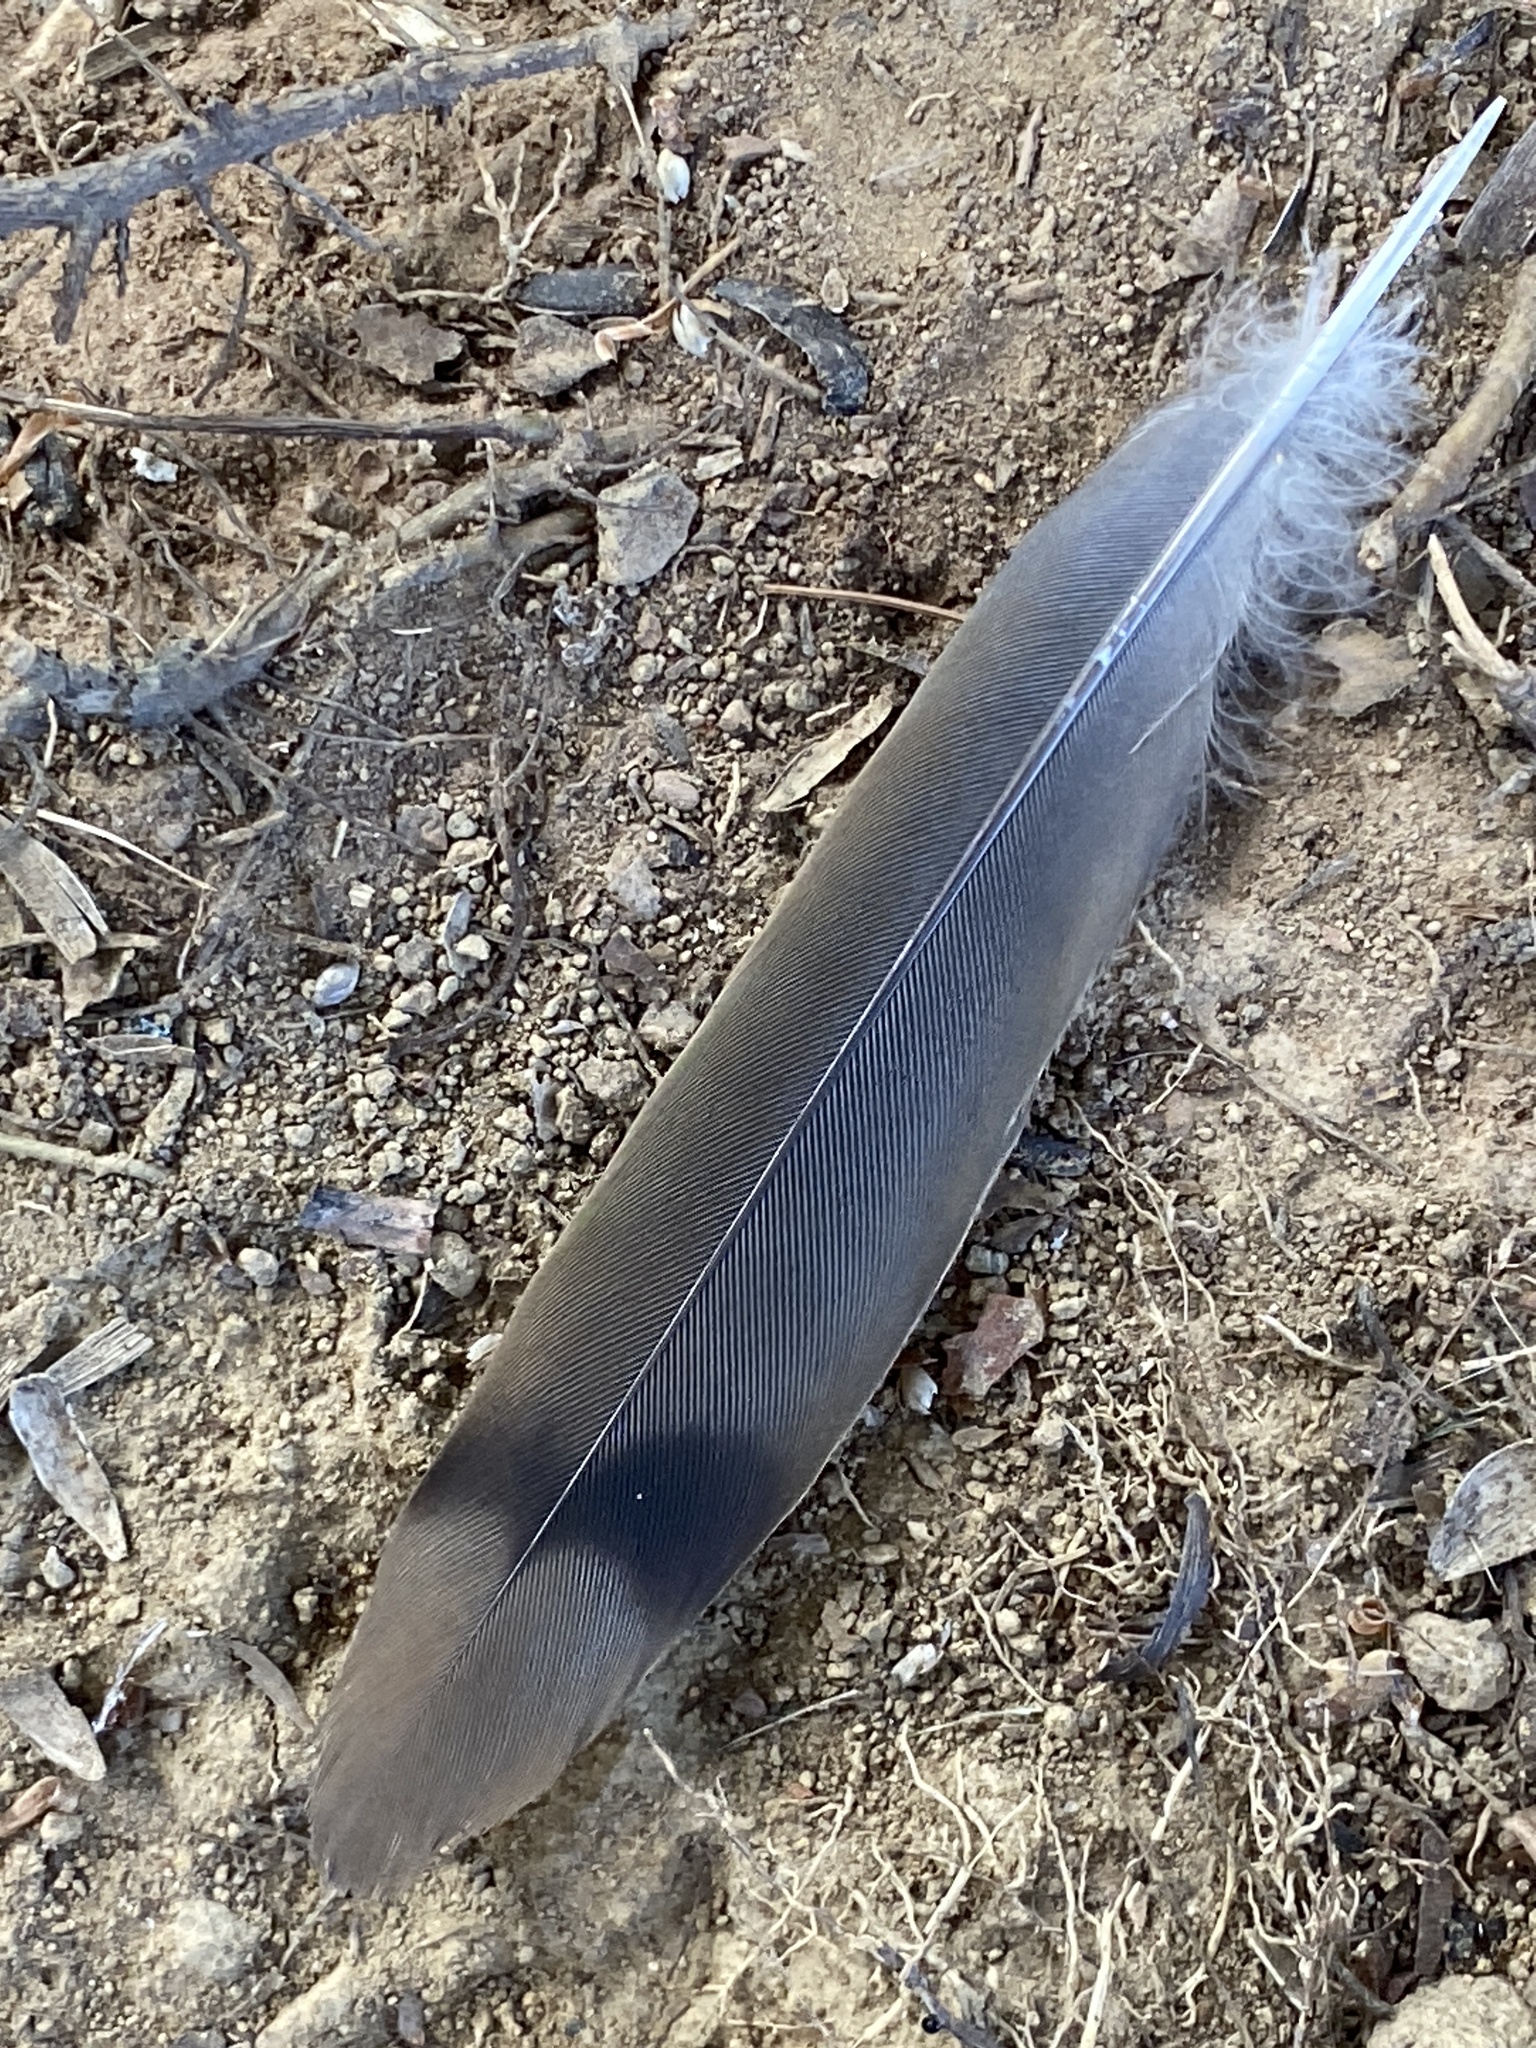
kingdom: Animalia
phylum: Chordata
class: Aves
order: Columbiformes
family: Columbidae
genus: Zenaida
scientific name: Zenaida macroura
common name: Mourning dove
